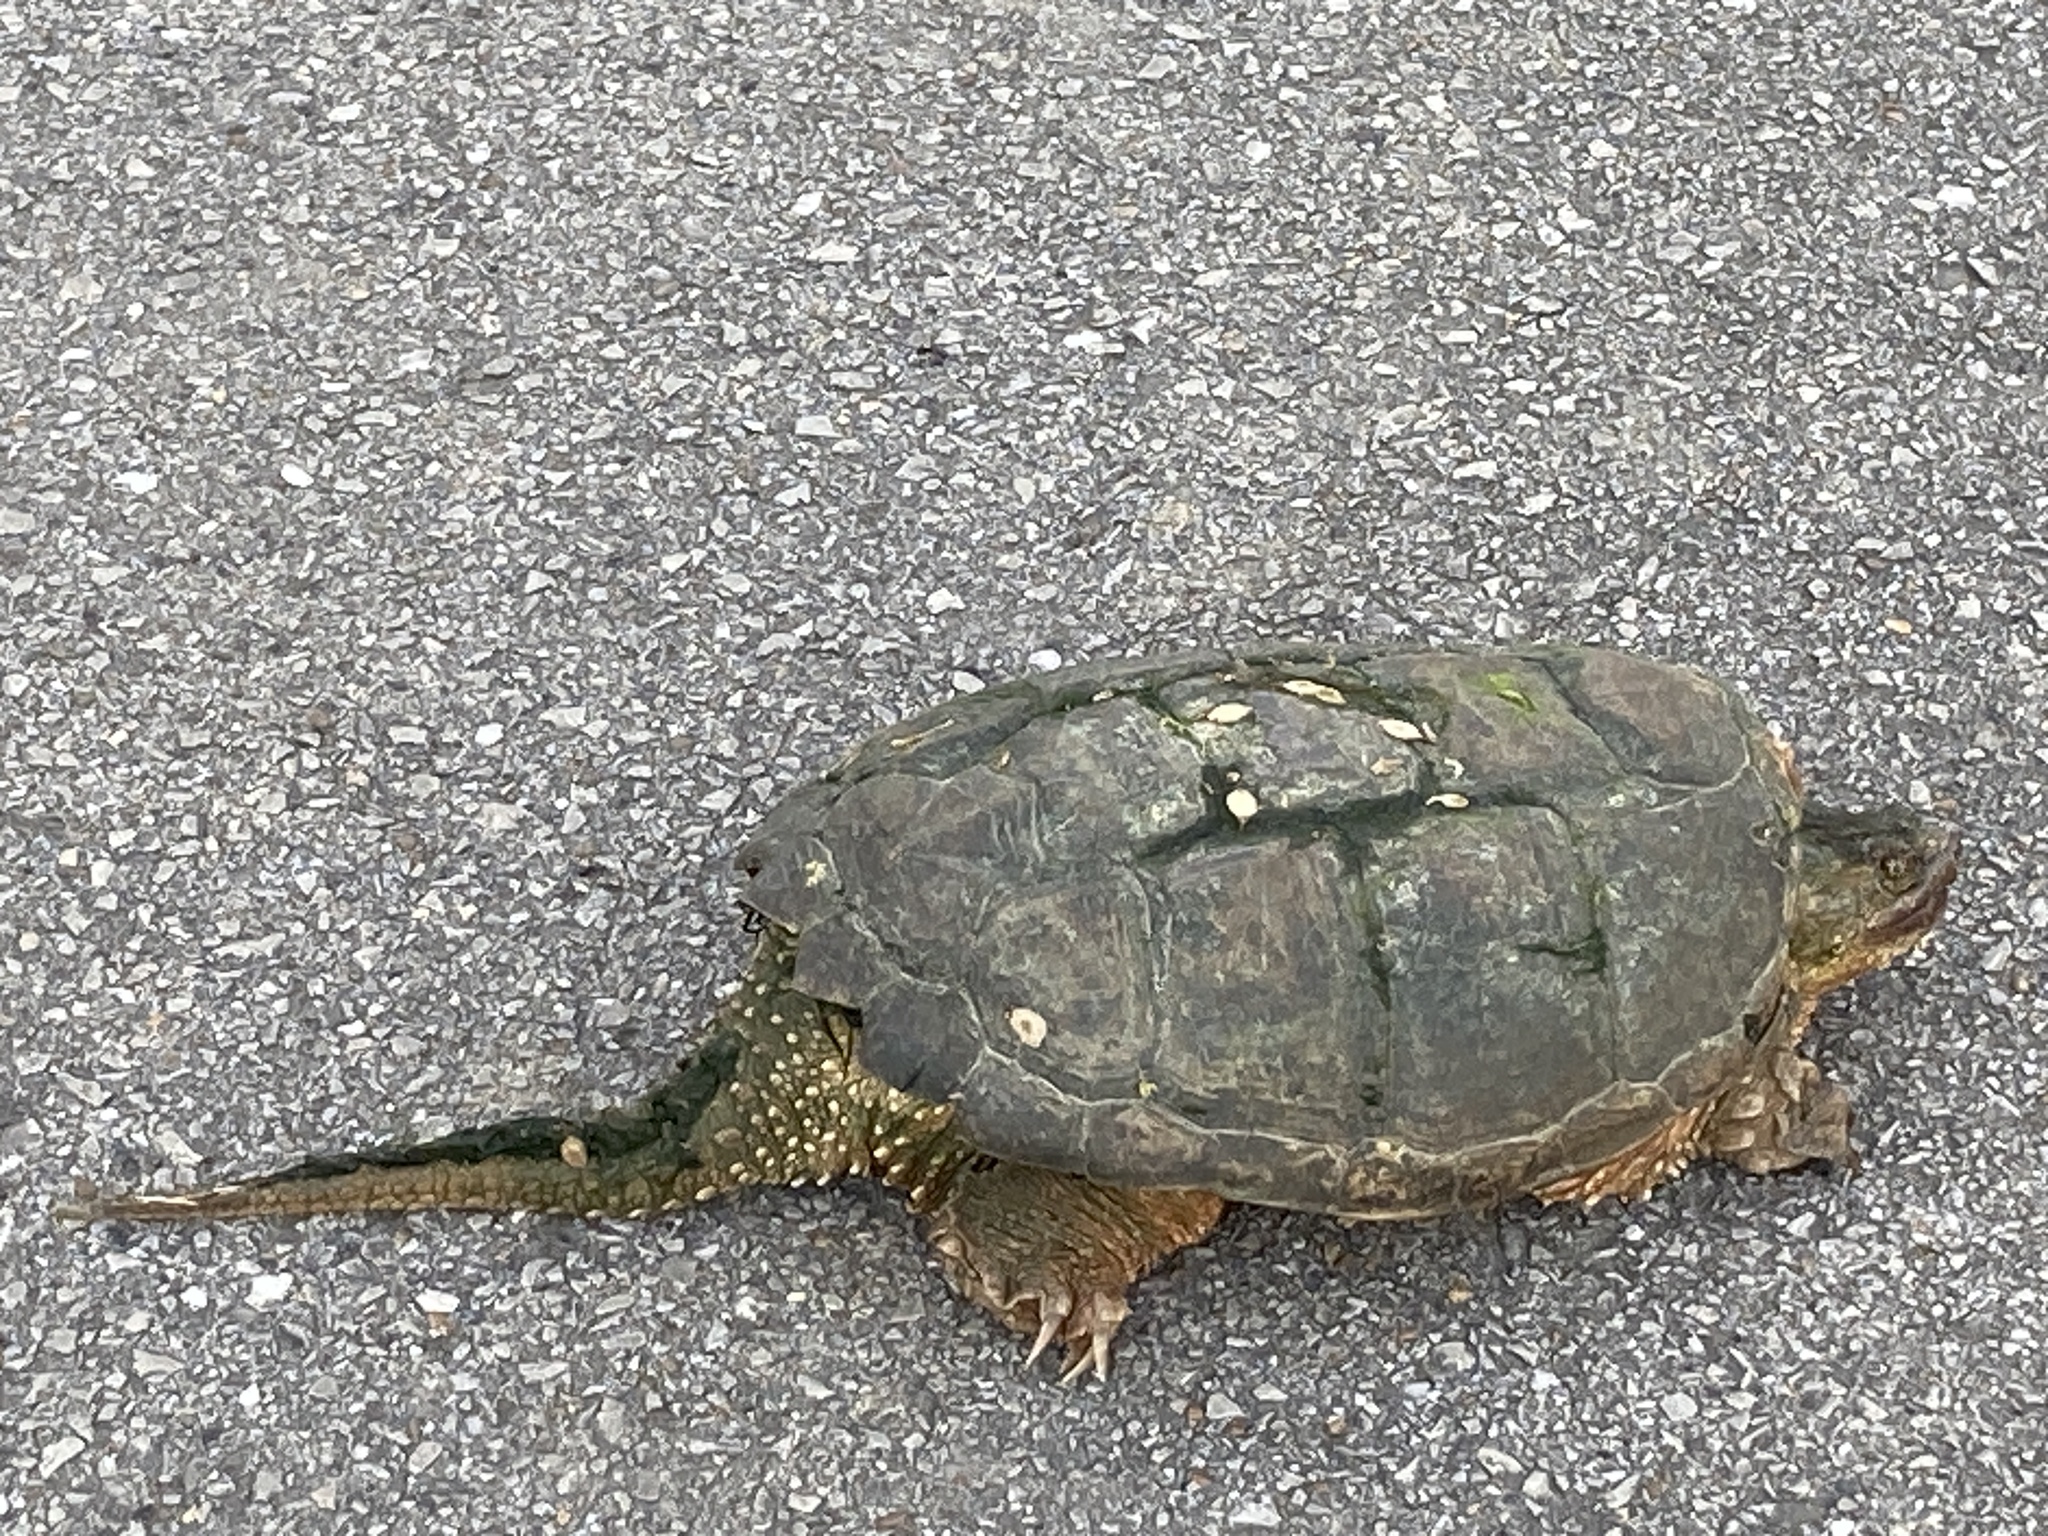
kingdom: Animalia
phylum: Chordata
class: Testudines
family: Chelydridae
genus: Chelydra
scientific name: Chelydra serpentina
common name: Common snapping turtle
